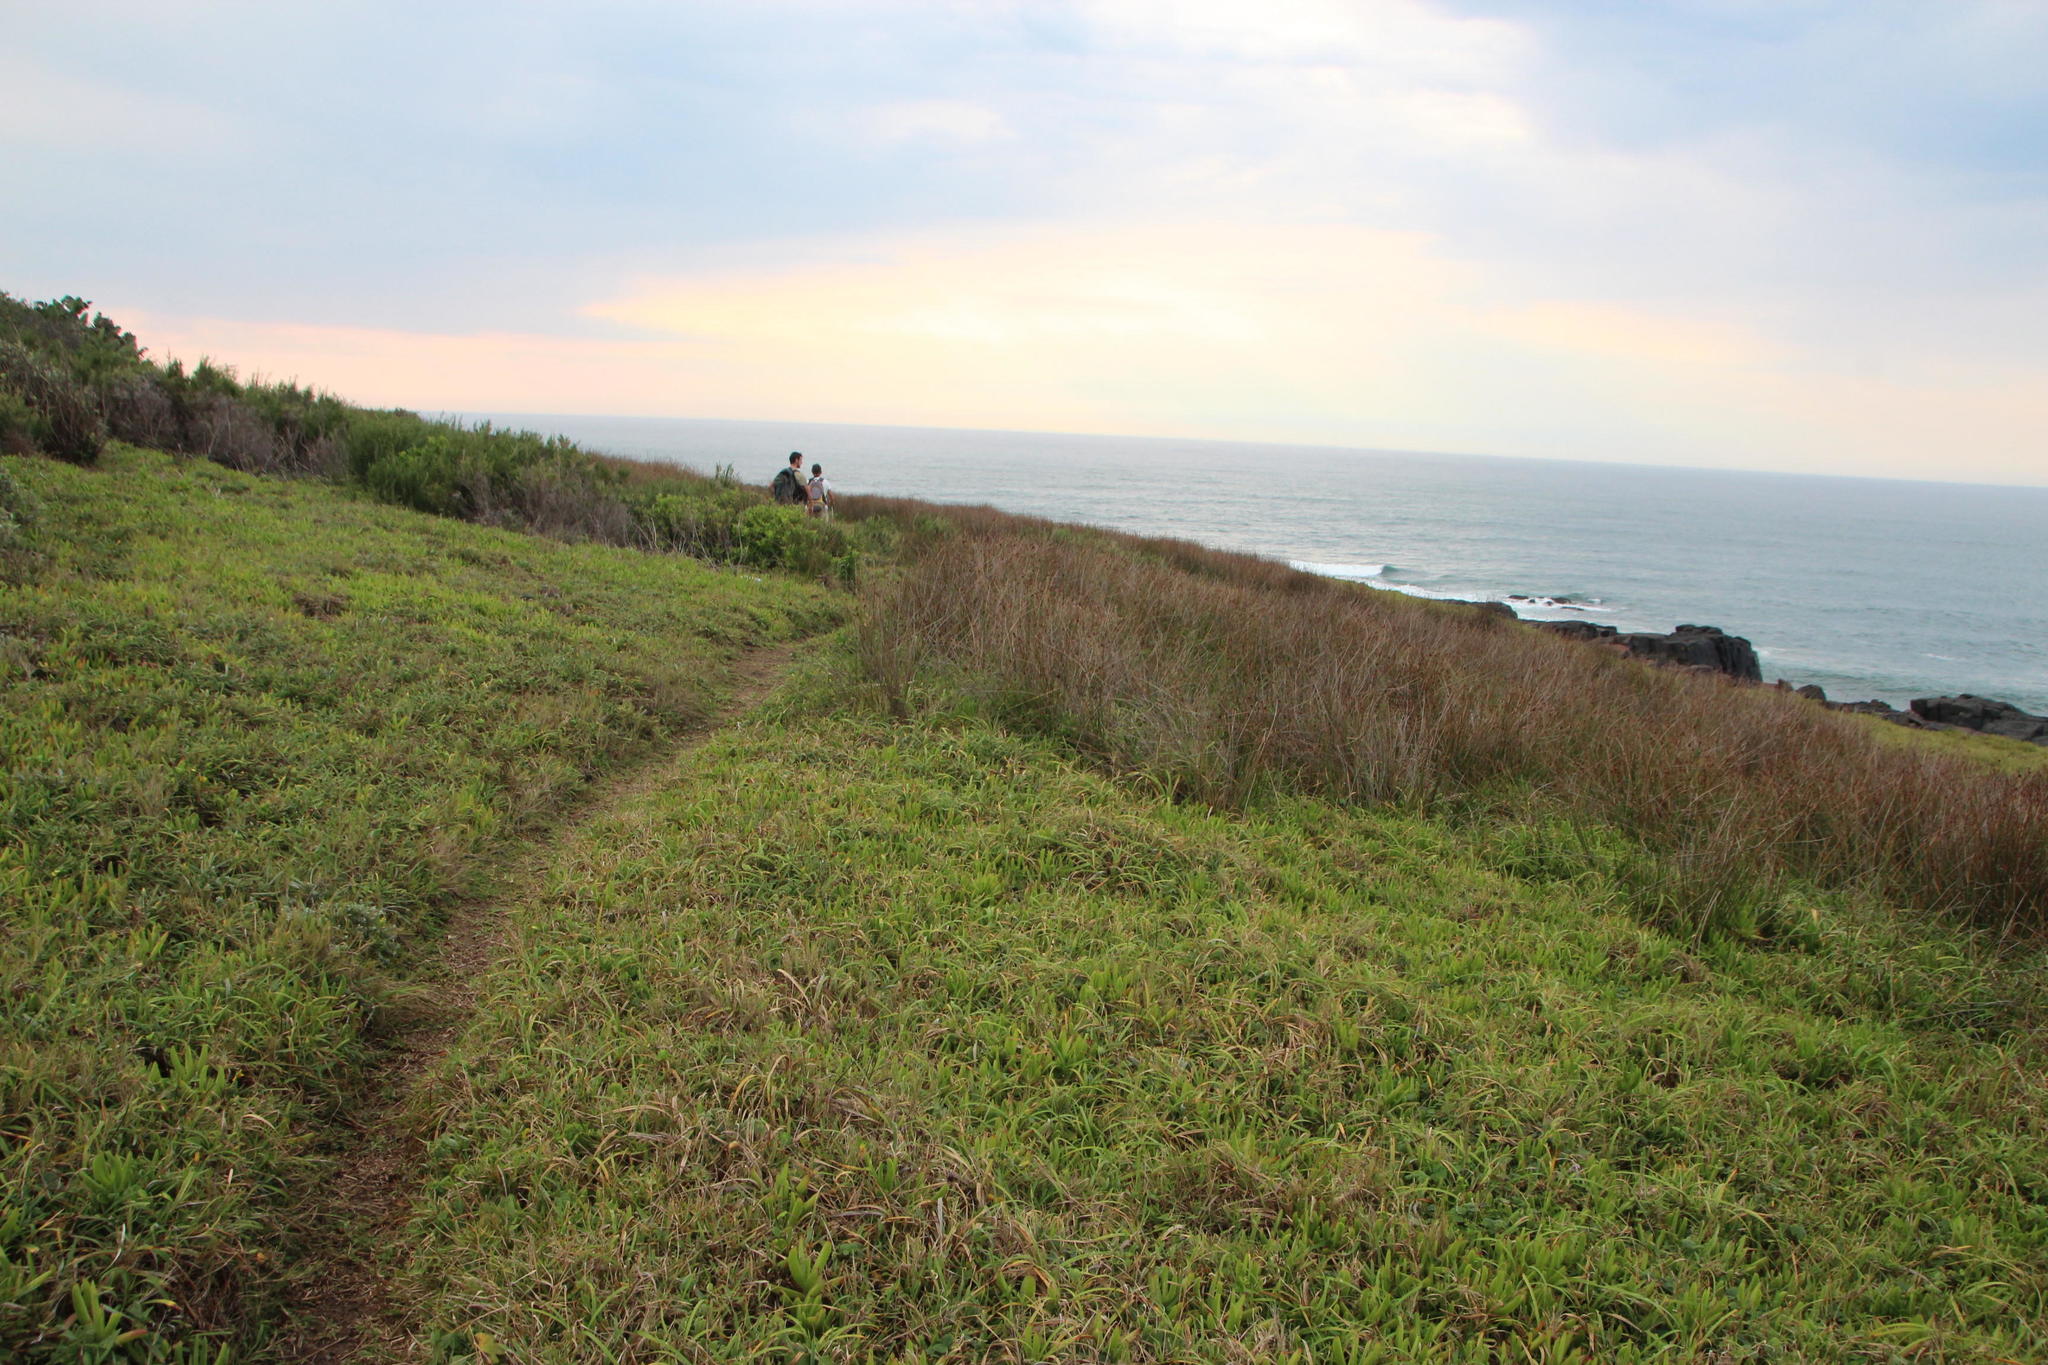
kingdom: Plantae
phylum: Tracheophyta
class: Liliopsida
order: Poales
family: Poaceae
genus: Stenotaphrum
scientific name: Stenotaphrum secundatum
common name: St. augustine grass
